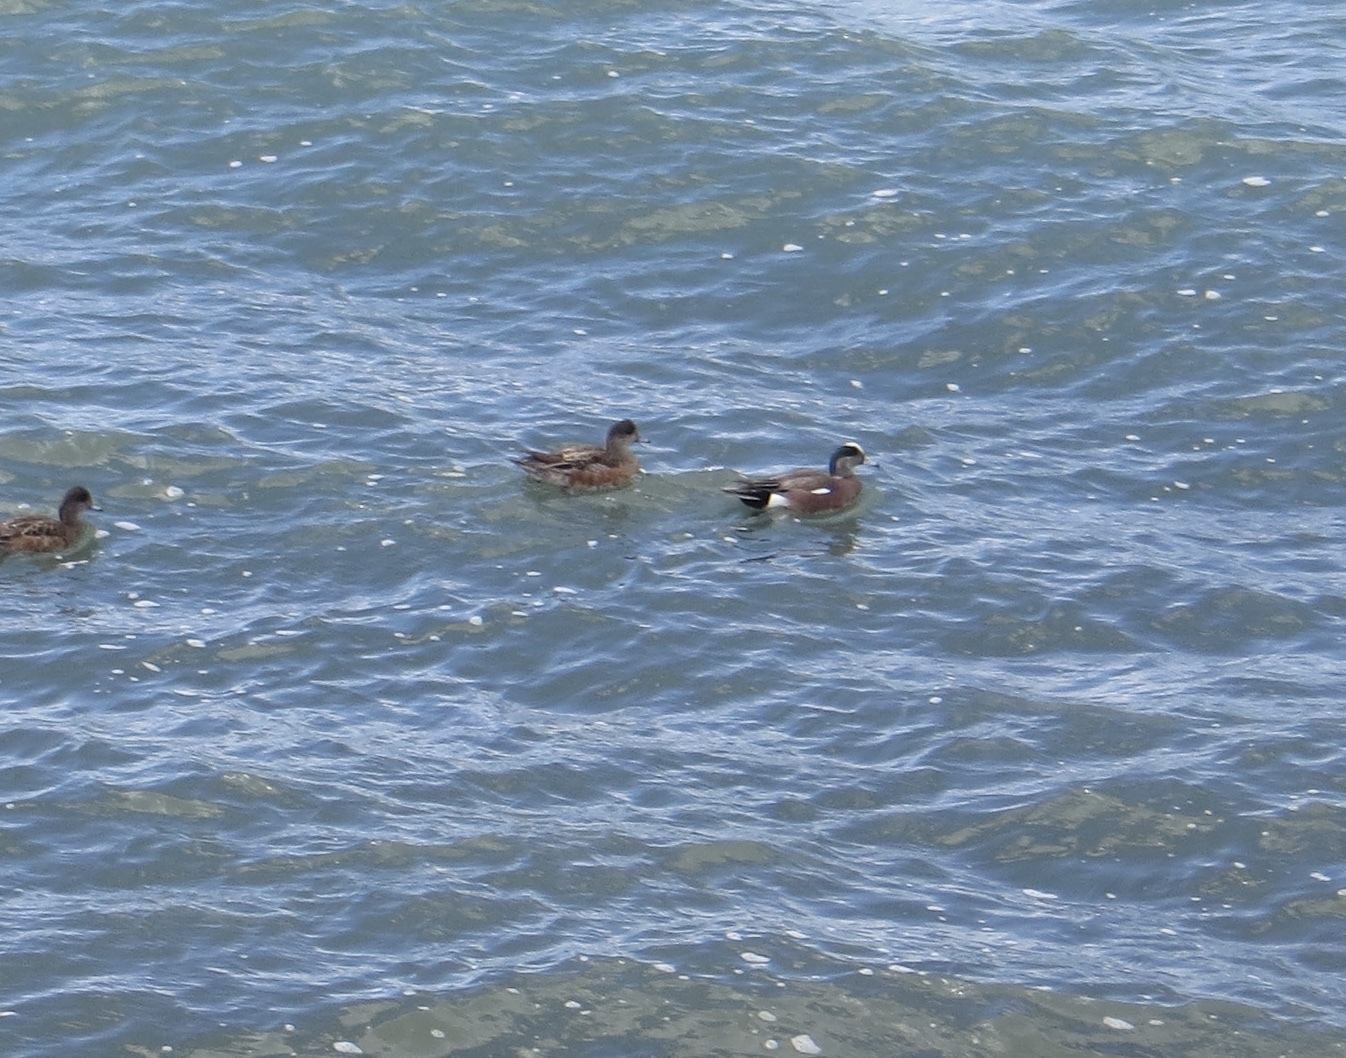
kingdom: Animalia
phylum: Chordata
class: Aves
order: Anseriformes
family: Anatidae
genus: Mareca
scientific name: Mareca americana
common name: American wigeon
